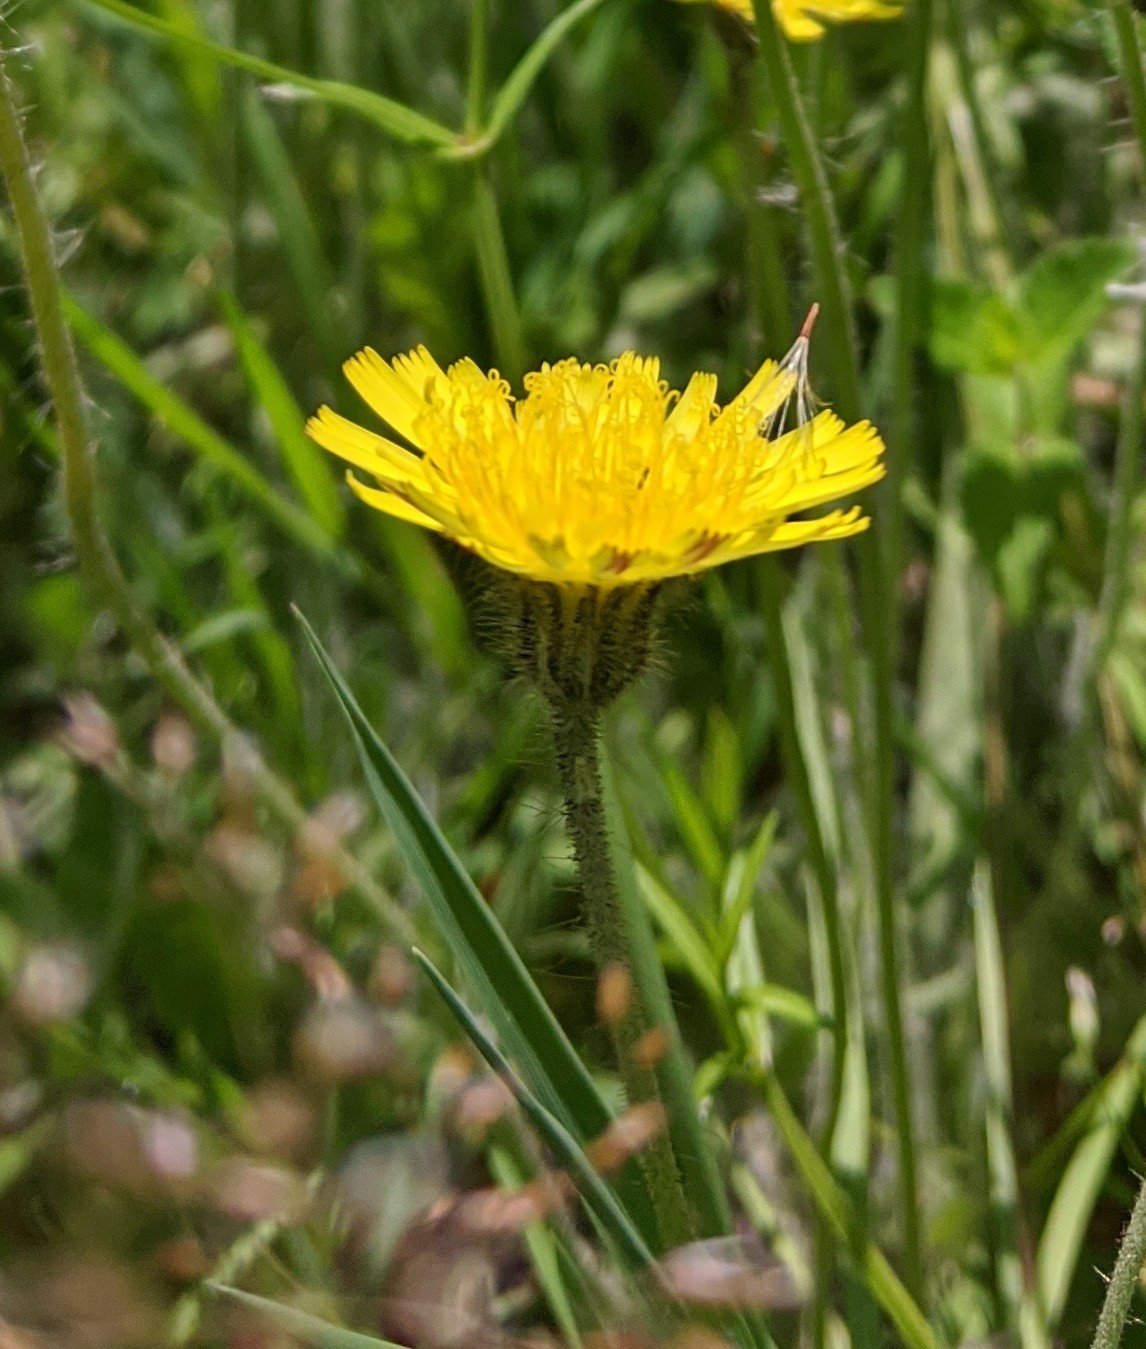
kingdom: Plantae
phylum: Tracheophyta
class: Magnoliopsida
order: Asterales
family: Asteraceae
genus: Pilosella
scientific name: Pilosella officinarum
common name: Mouse-ear hawkweed
